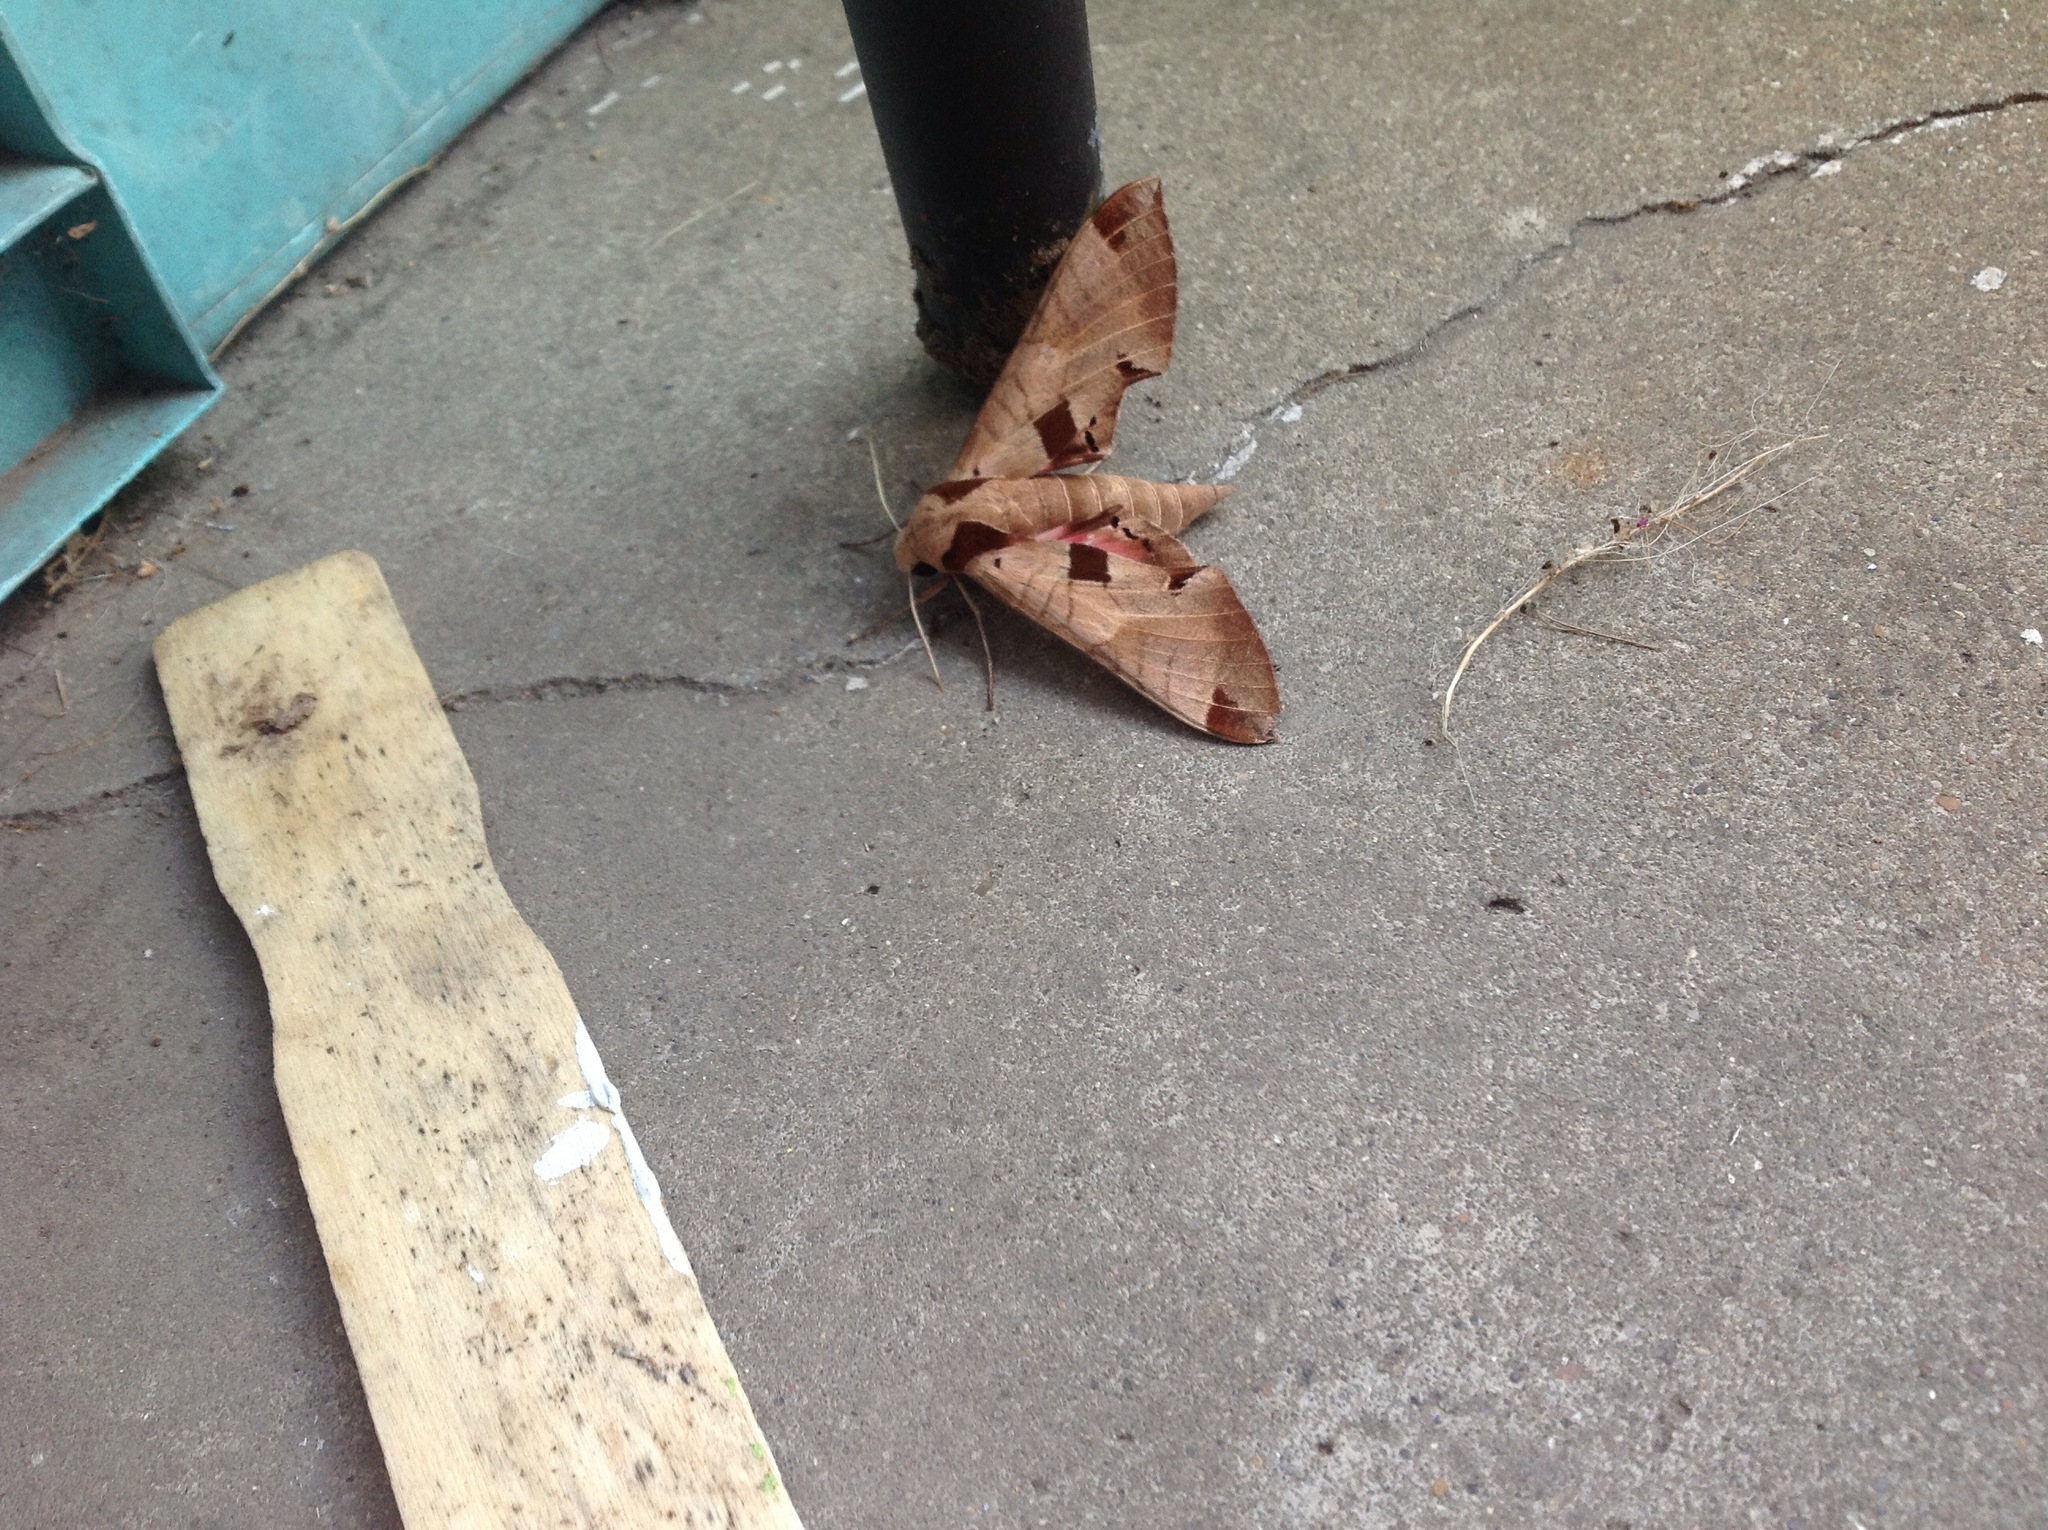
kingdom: Animalia
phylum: Arthropoda
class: Insecta
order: Lepidoptera
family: Sphingidae
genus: Eumorpha
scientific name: Eumorpha achemon
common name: Achemon sphinx
